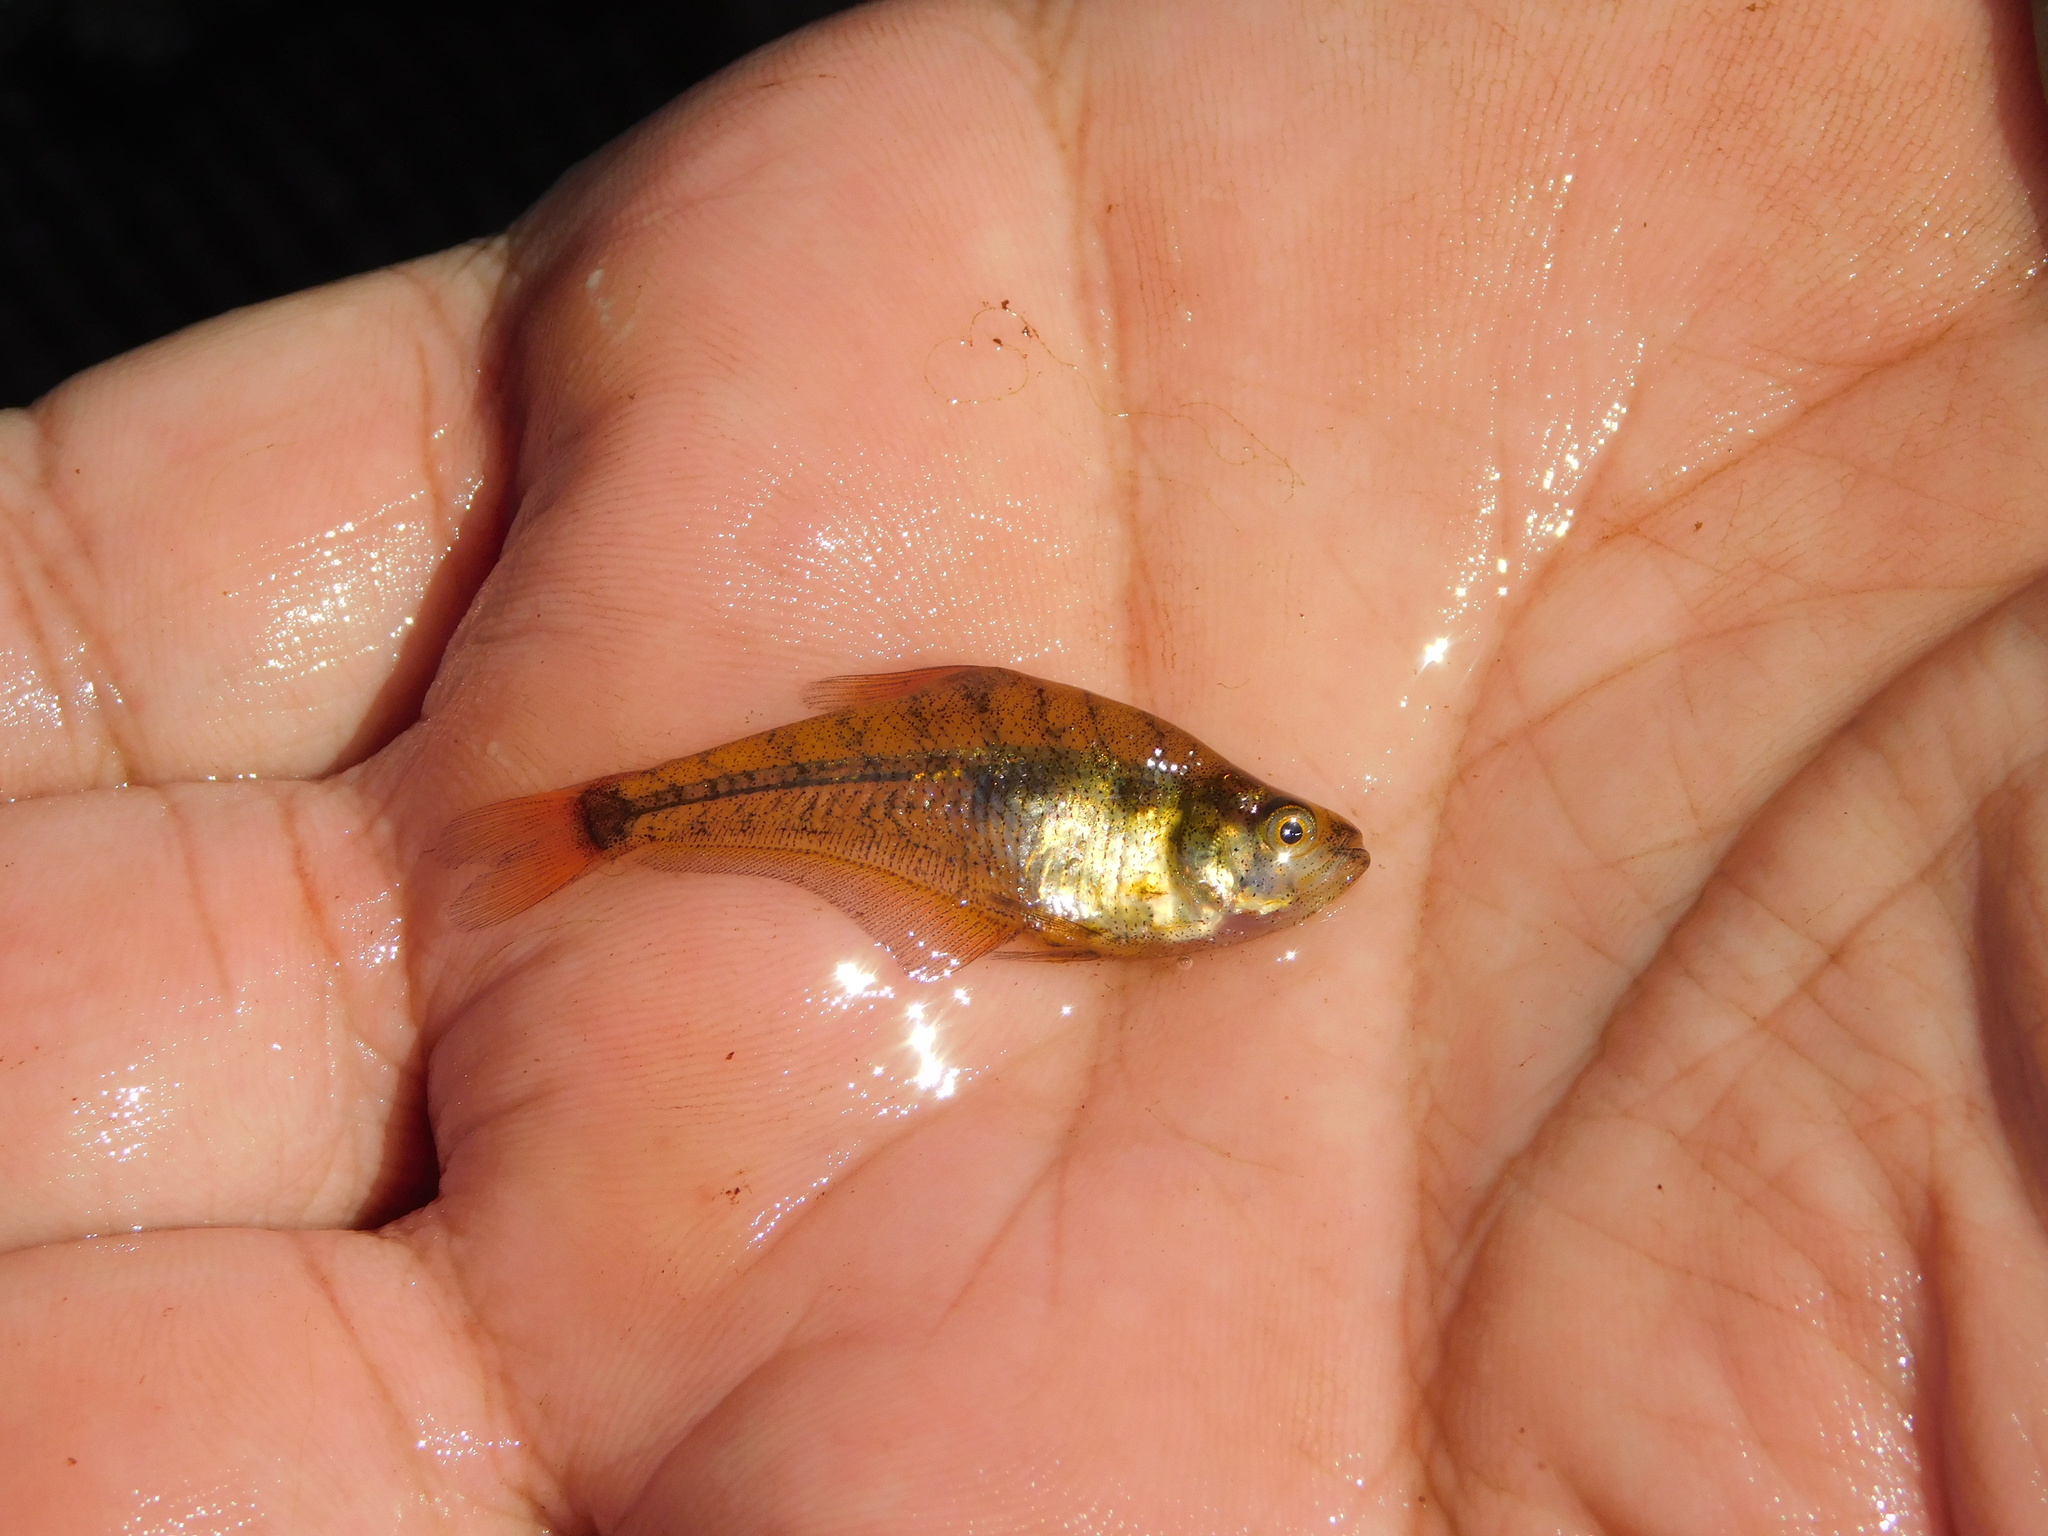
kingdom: Animalia
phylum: Chordata
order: Characiformes
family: Characidae
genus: Charax
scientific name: Charax stenopterus
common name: Glass headstander
